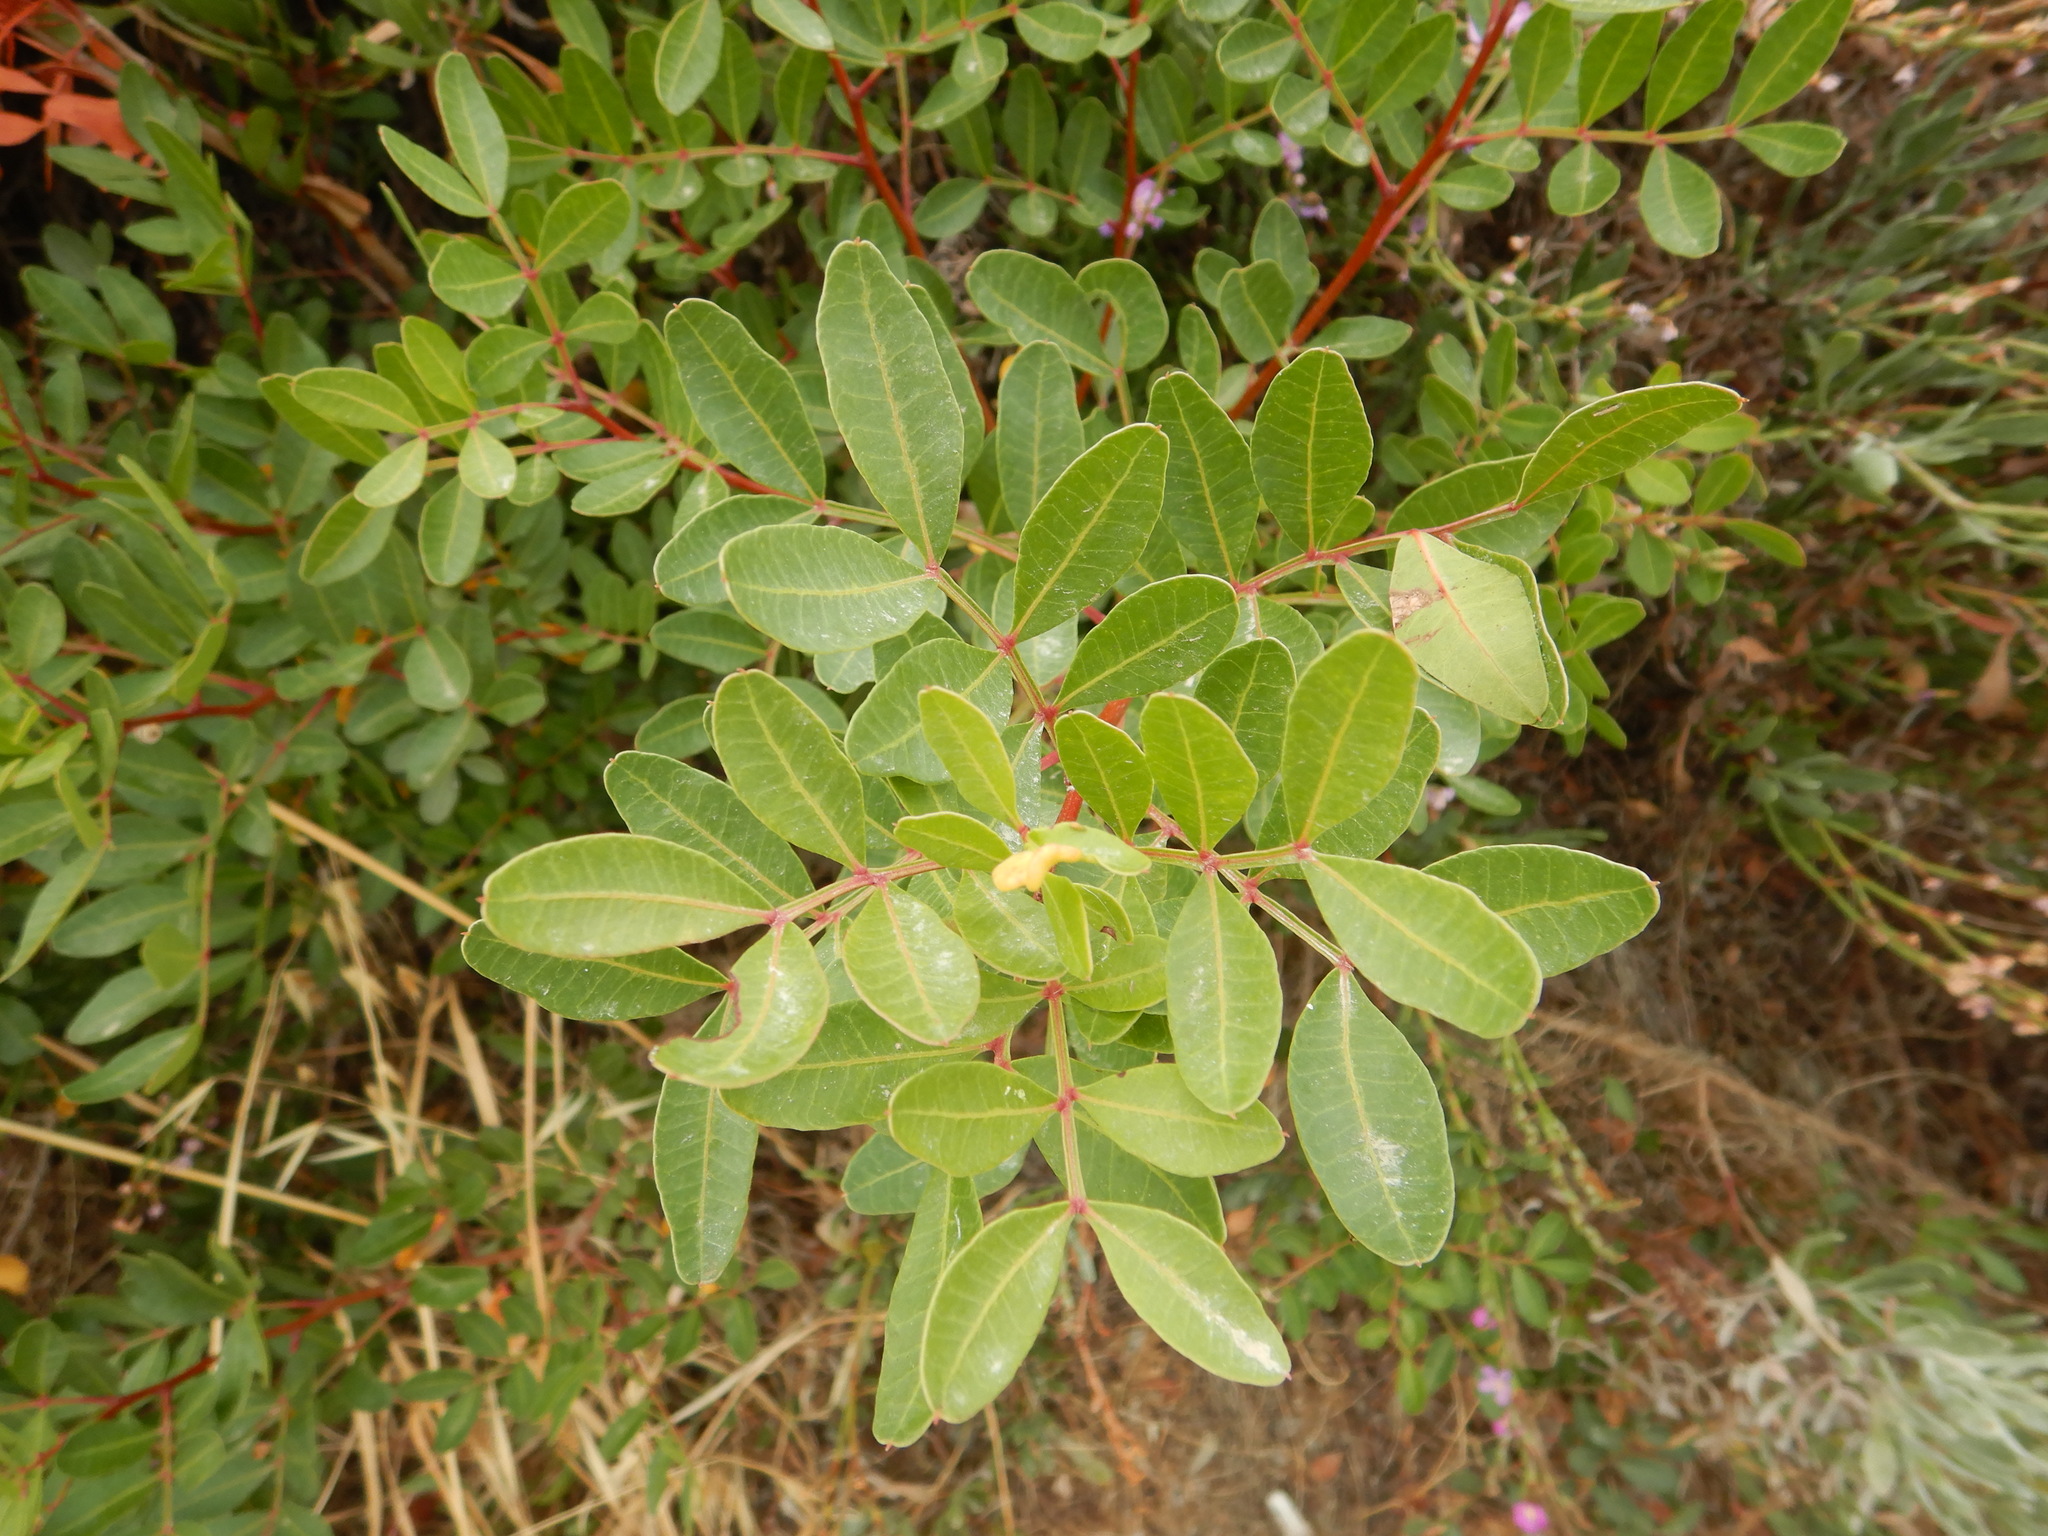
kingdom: Plantae
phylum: Tracheophyta
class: Magnoliopsida
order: Sapindales
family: Anacardiaceae
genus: Pistacia
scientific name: Pistacia lentiscus
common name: Lentisk
